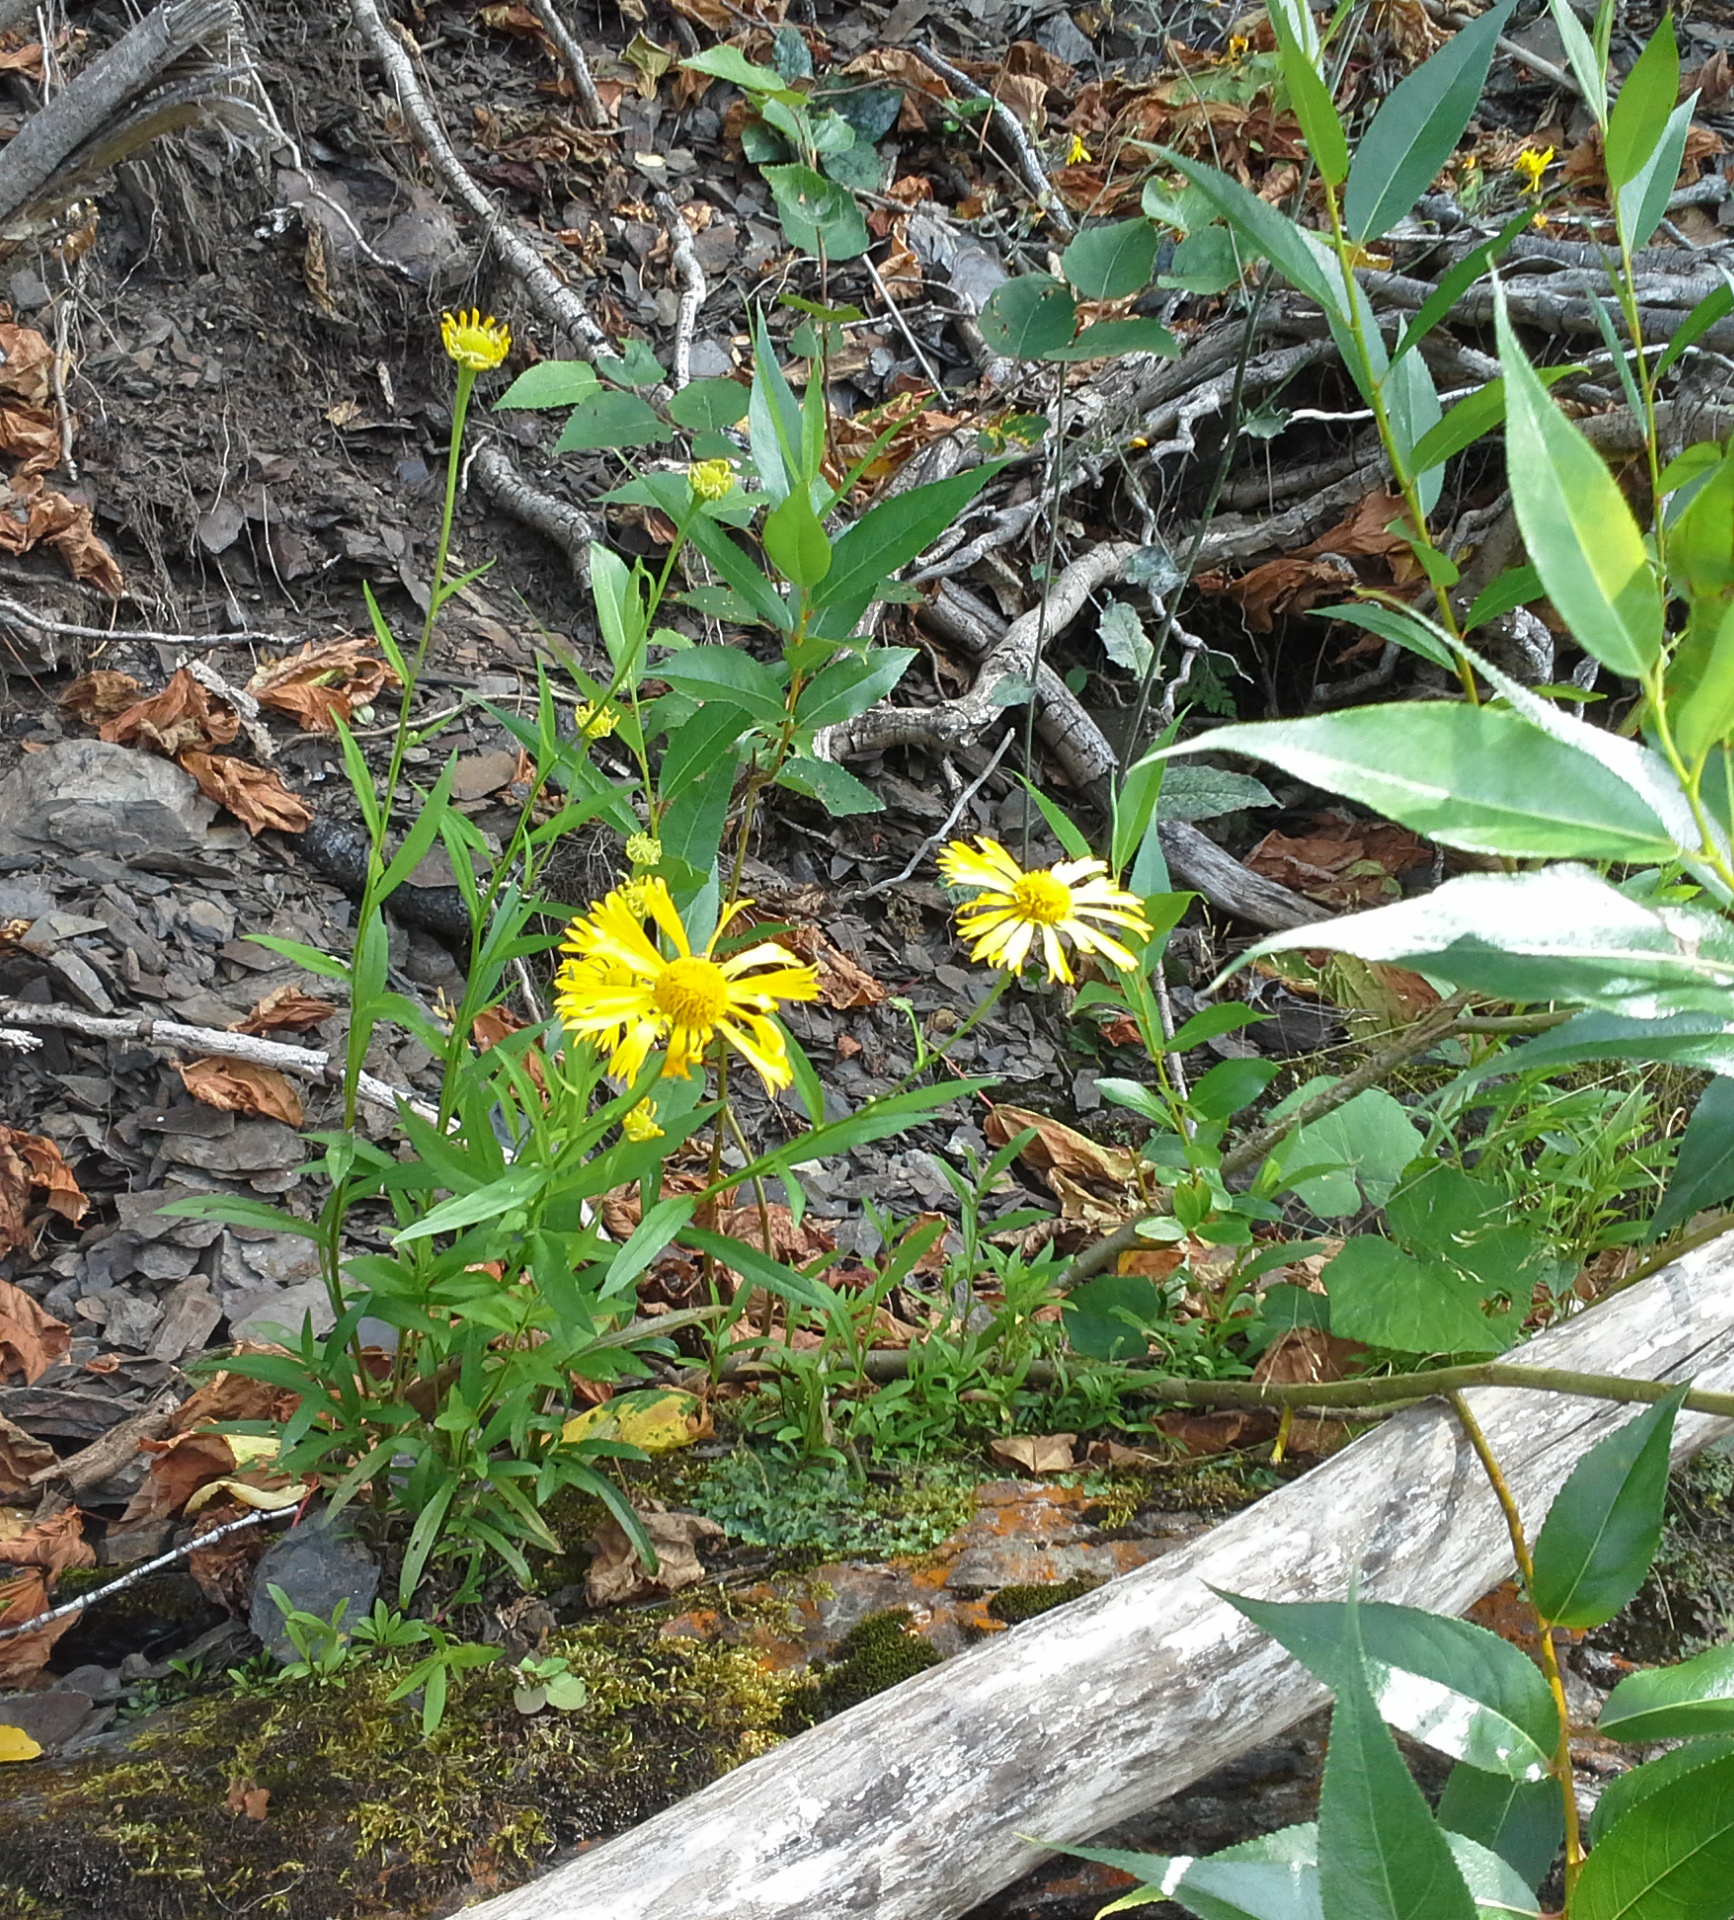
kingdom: Plantae
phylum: Tracheophyta
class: Magnoliopsida
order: Asterales
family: Asteraceae
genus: Helenium
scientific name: Helenium autumnale
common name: Sneezeweed
